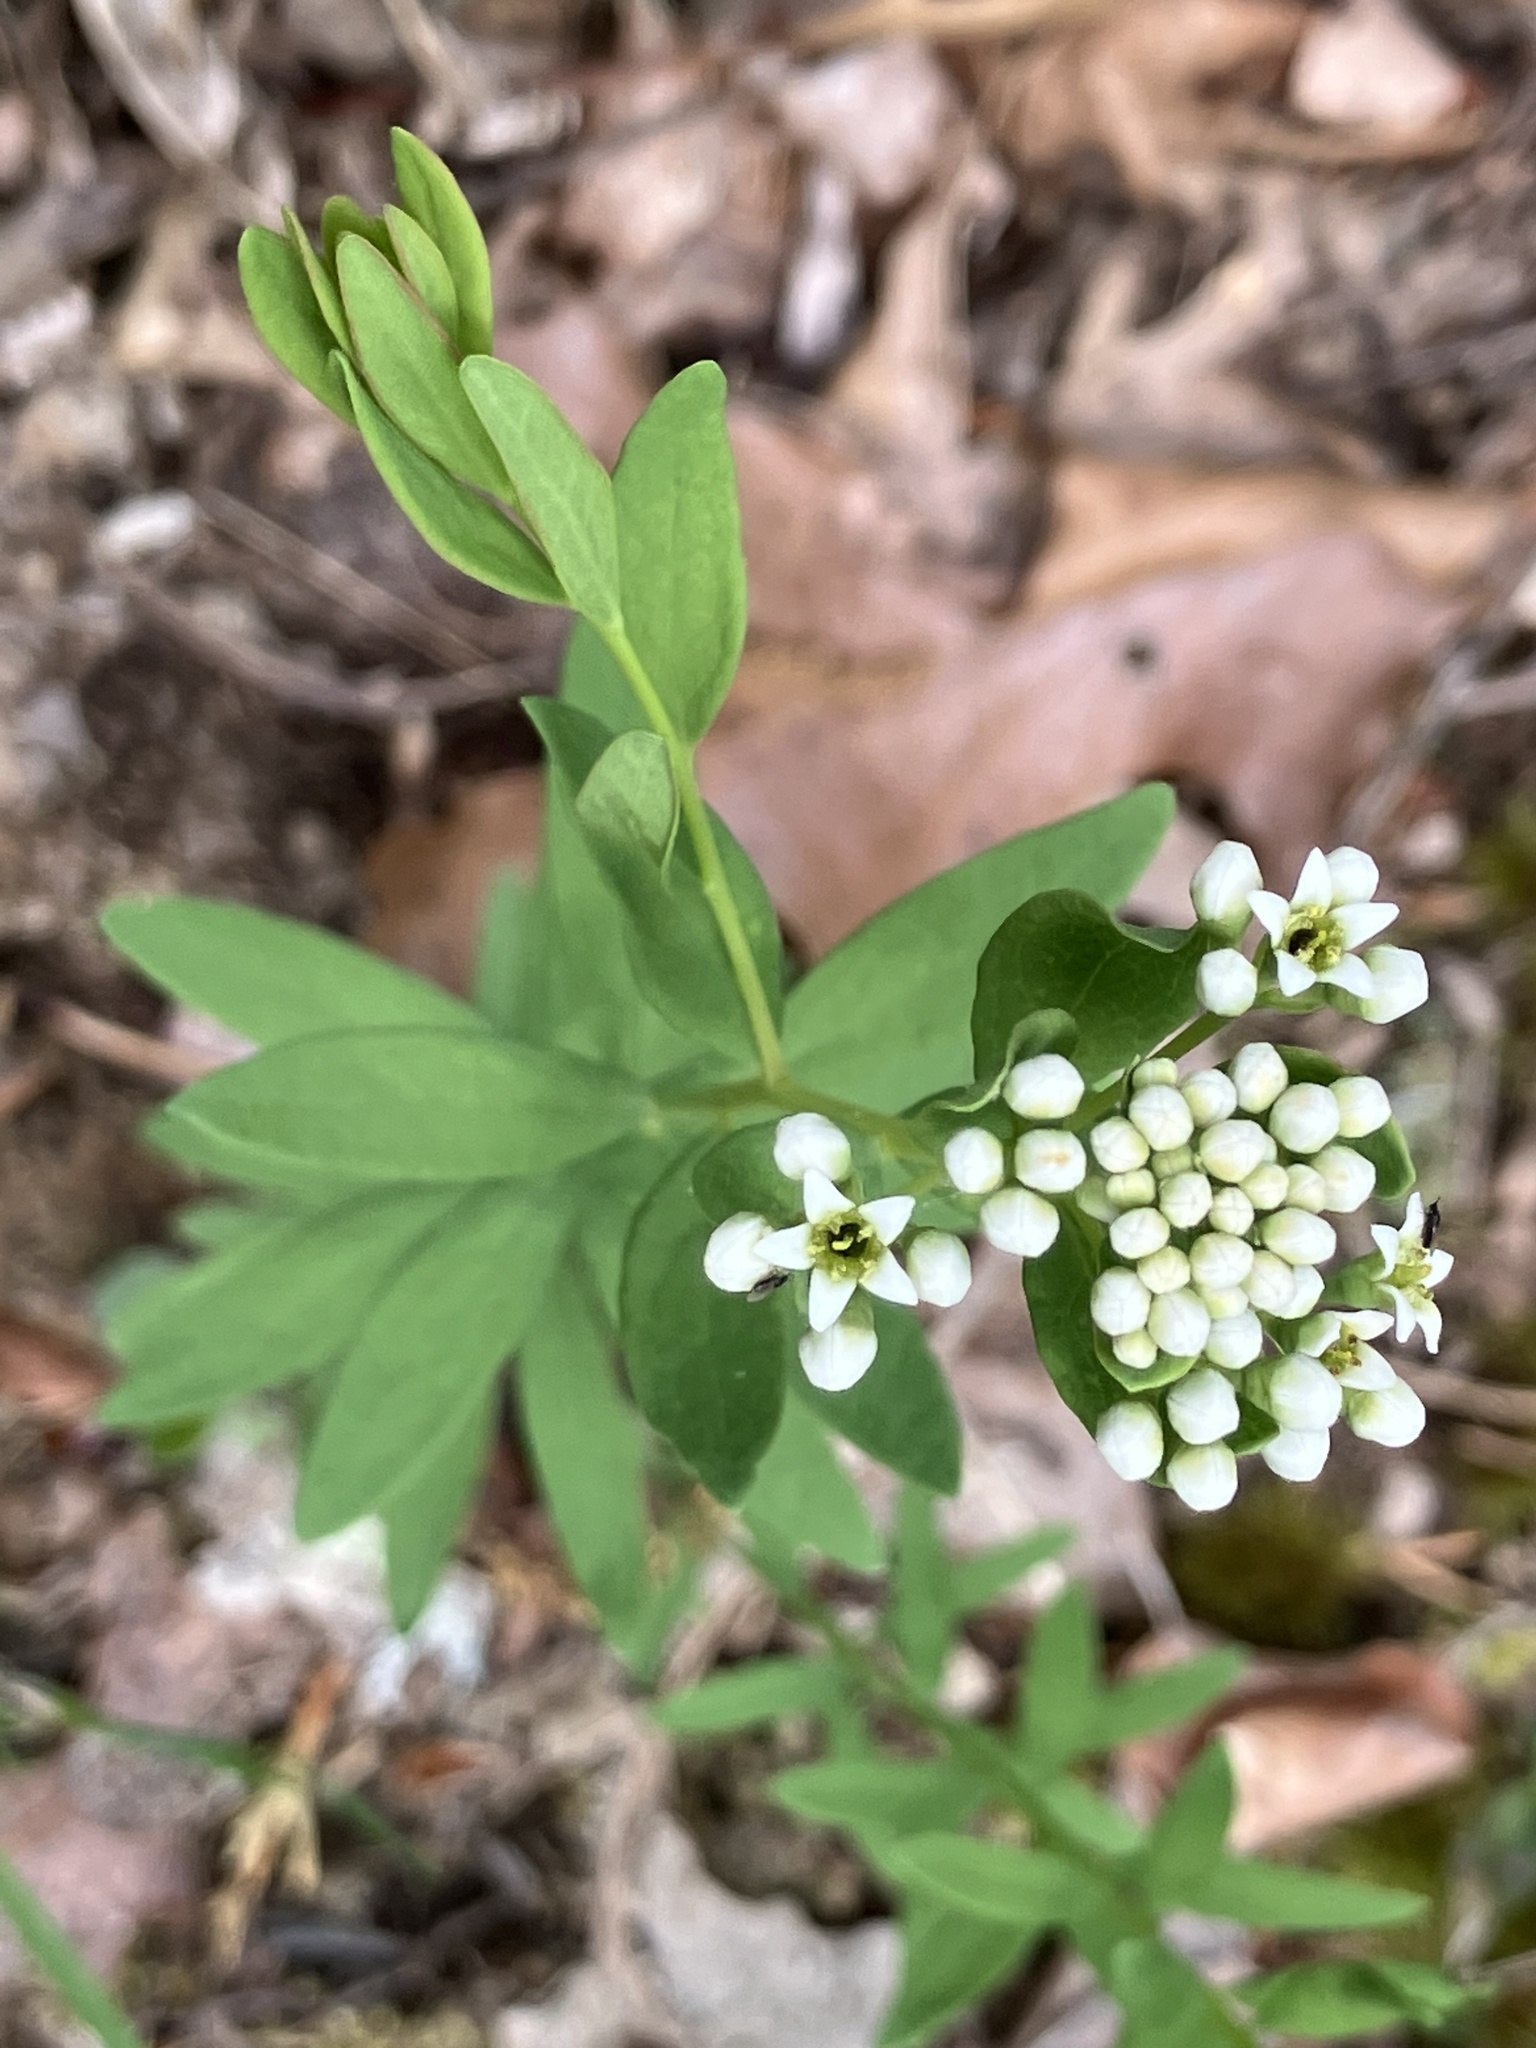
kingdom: Plantae
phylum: Tracheophyta
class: Magnoliopsida
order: Santalales
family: Comandraceae
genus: Comandra
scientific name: Comandra umbellata
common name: Bastard toadflax
